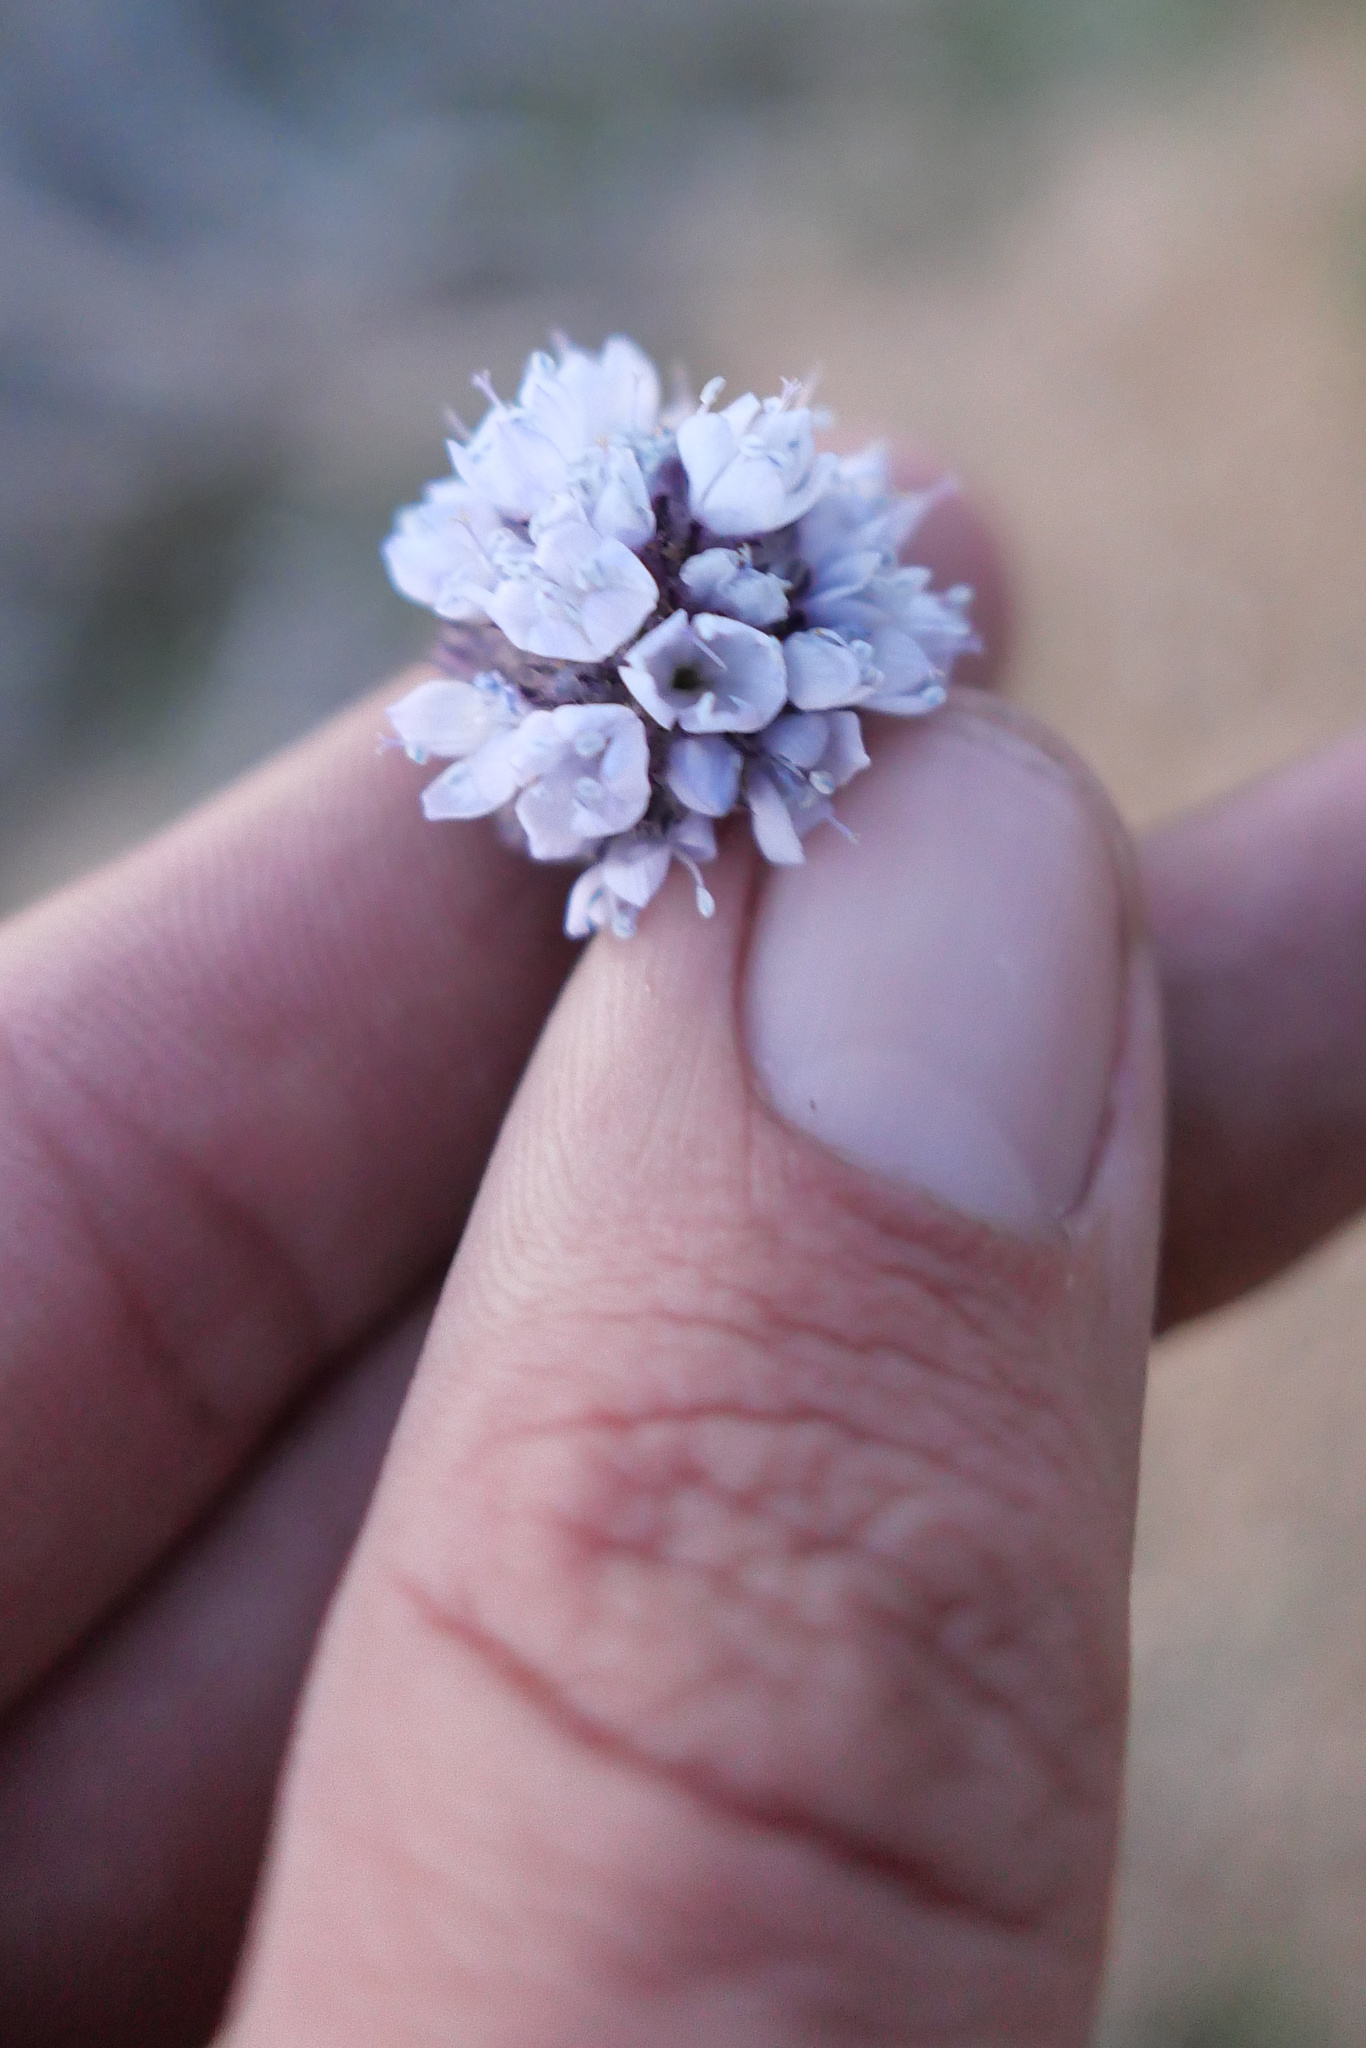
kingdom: Plantae
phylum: Tracheophyta
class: Magnoliopsida
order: Ericales
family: Polemoniaceae
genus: Gilia
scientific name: Gilia capitata
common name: Bluehead gilia
